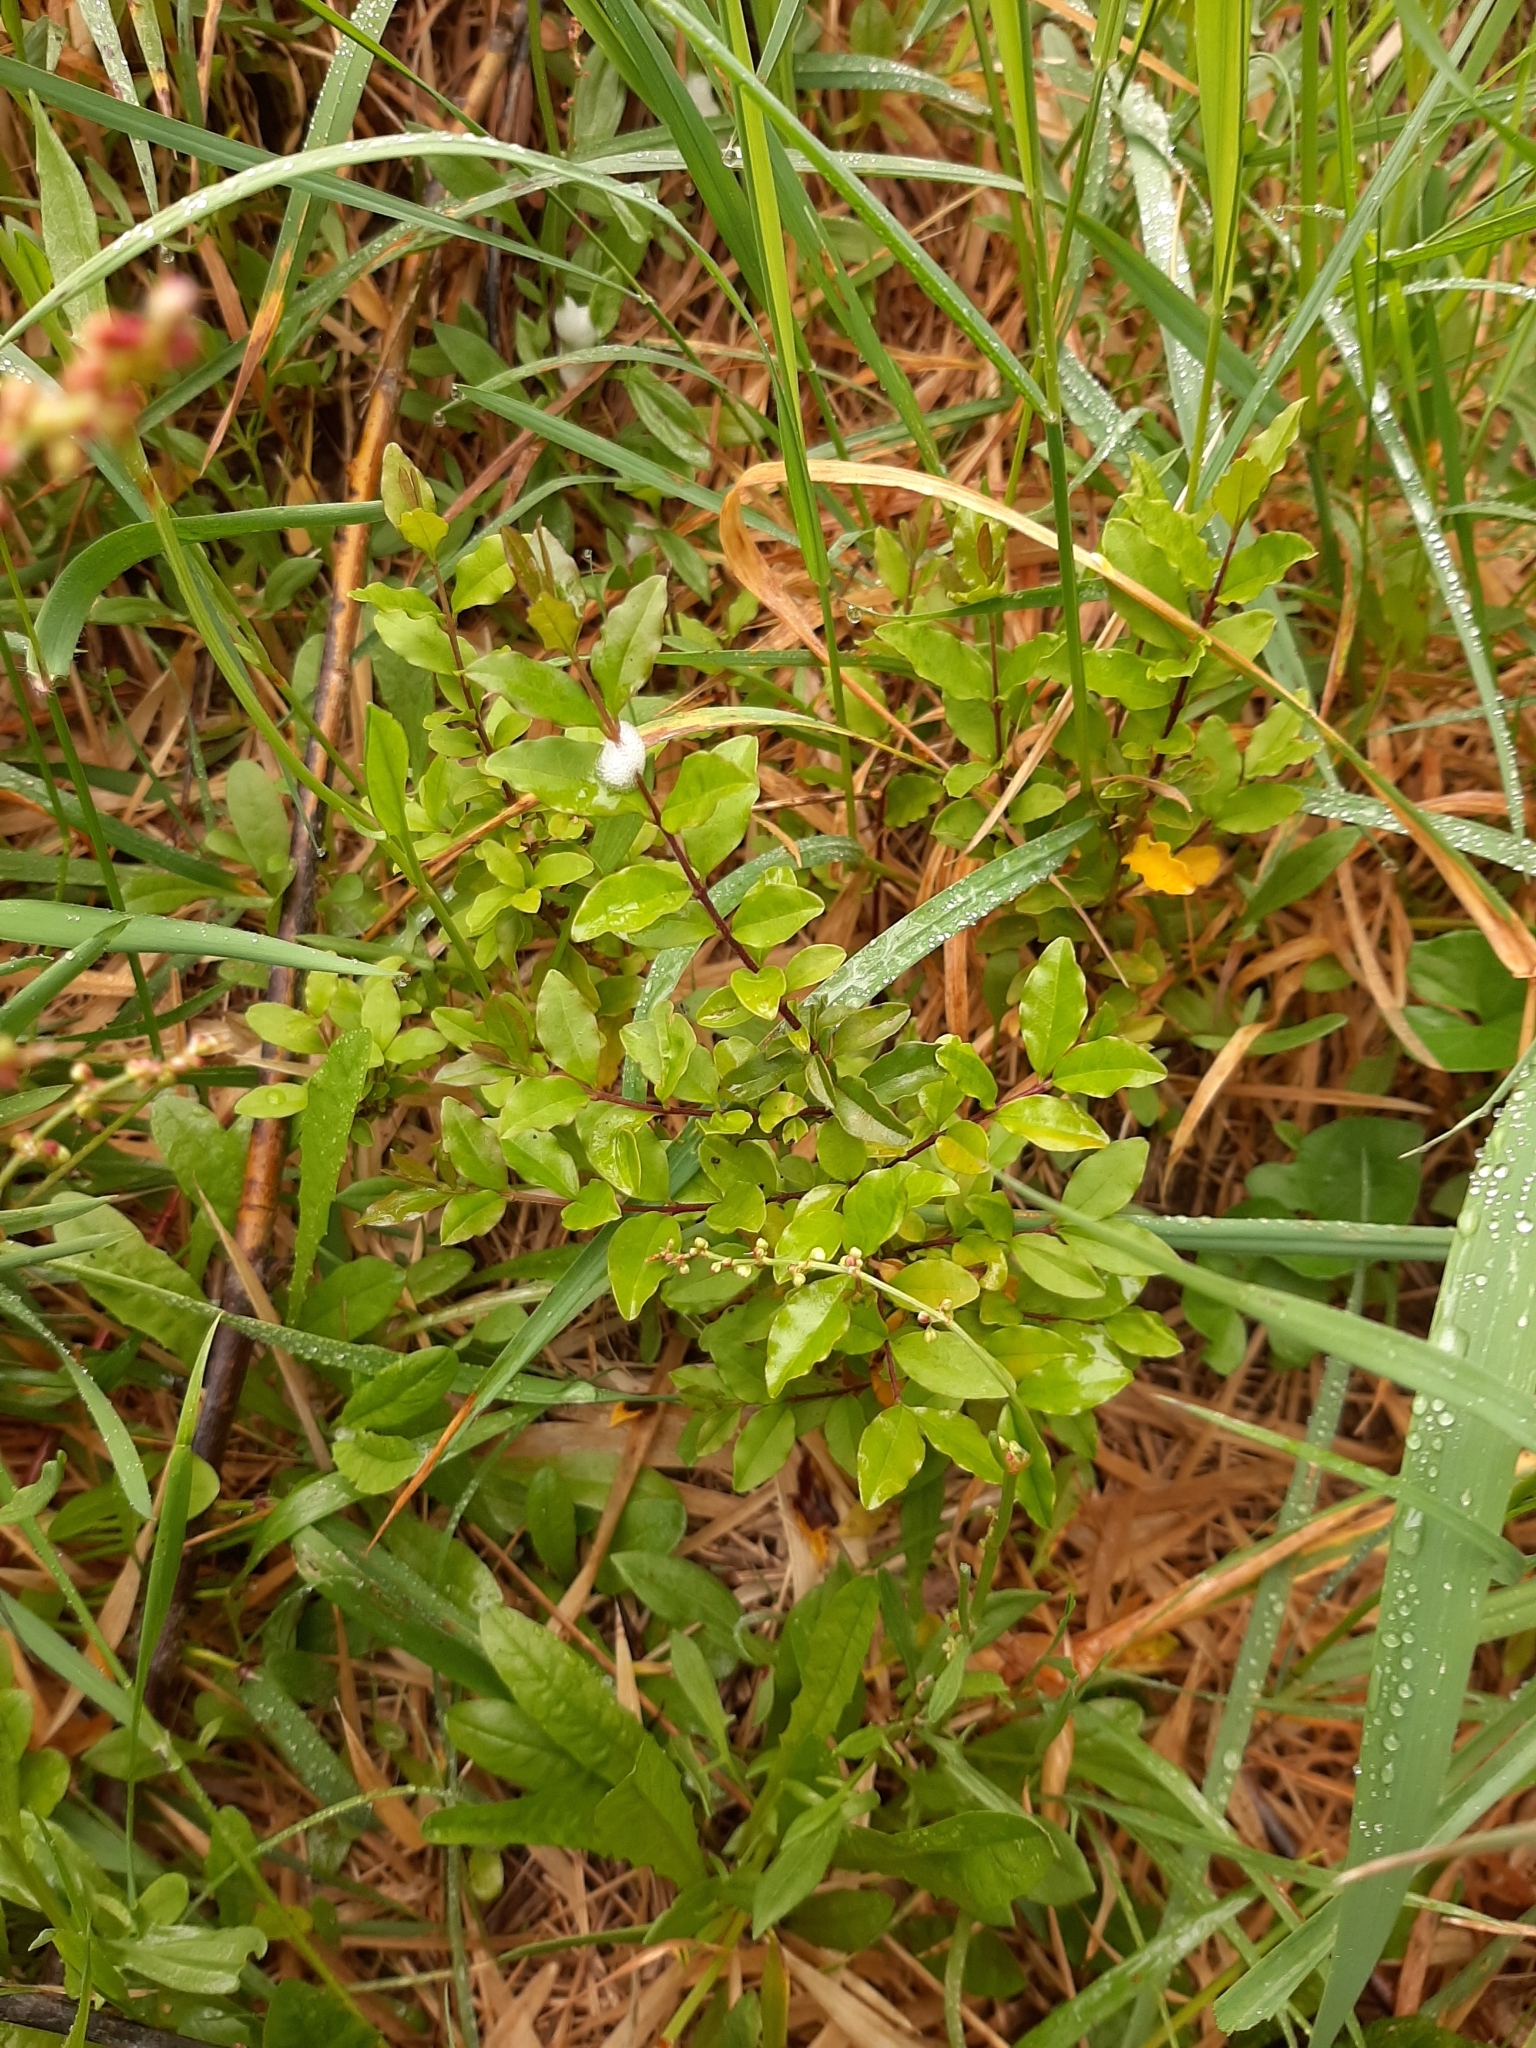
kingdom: Plantae
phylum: Tracheophyta
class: Magnoliopsida
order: Lamiales
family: Oleaceae
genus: Ligustrum
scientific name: Ligustrum sinense
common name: Chinese privet
